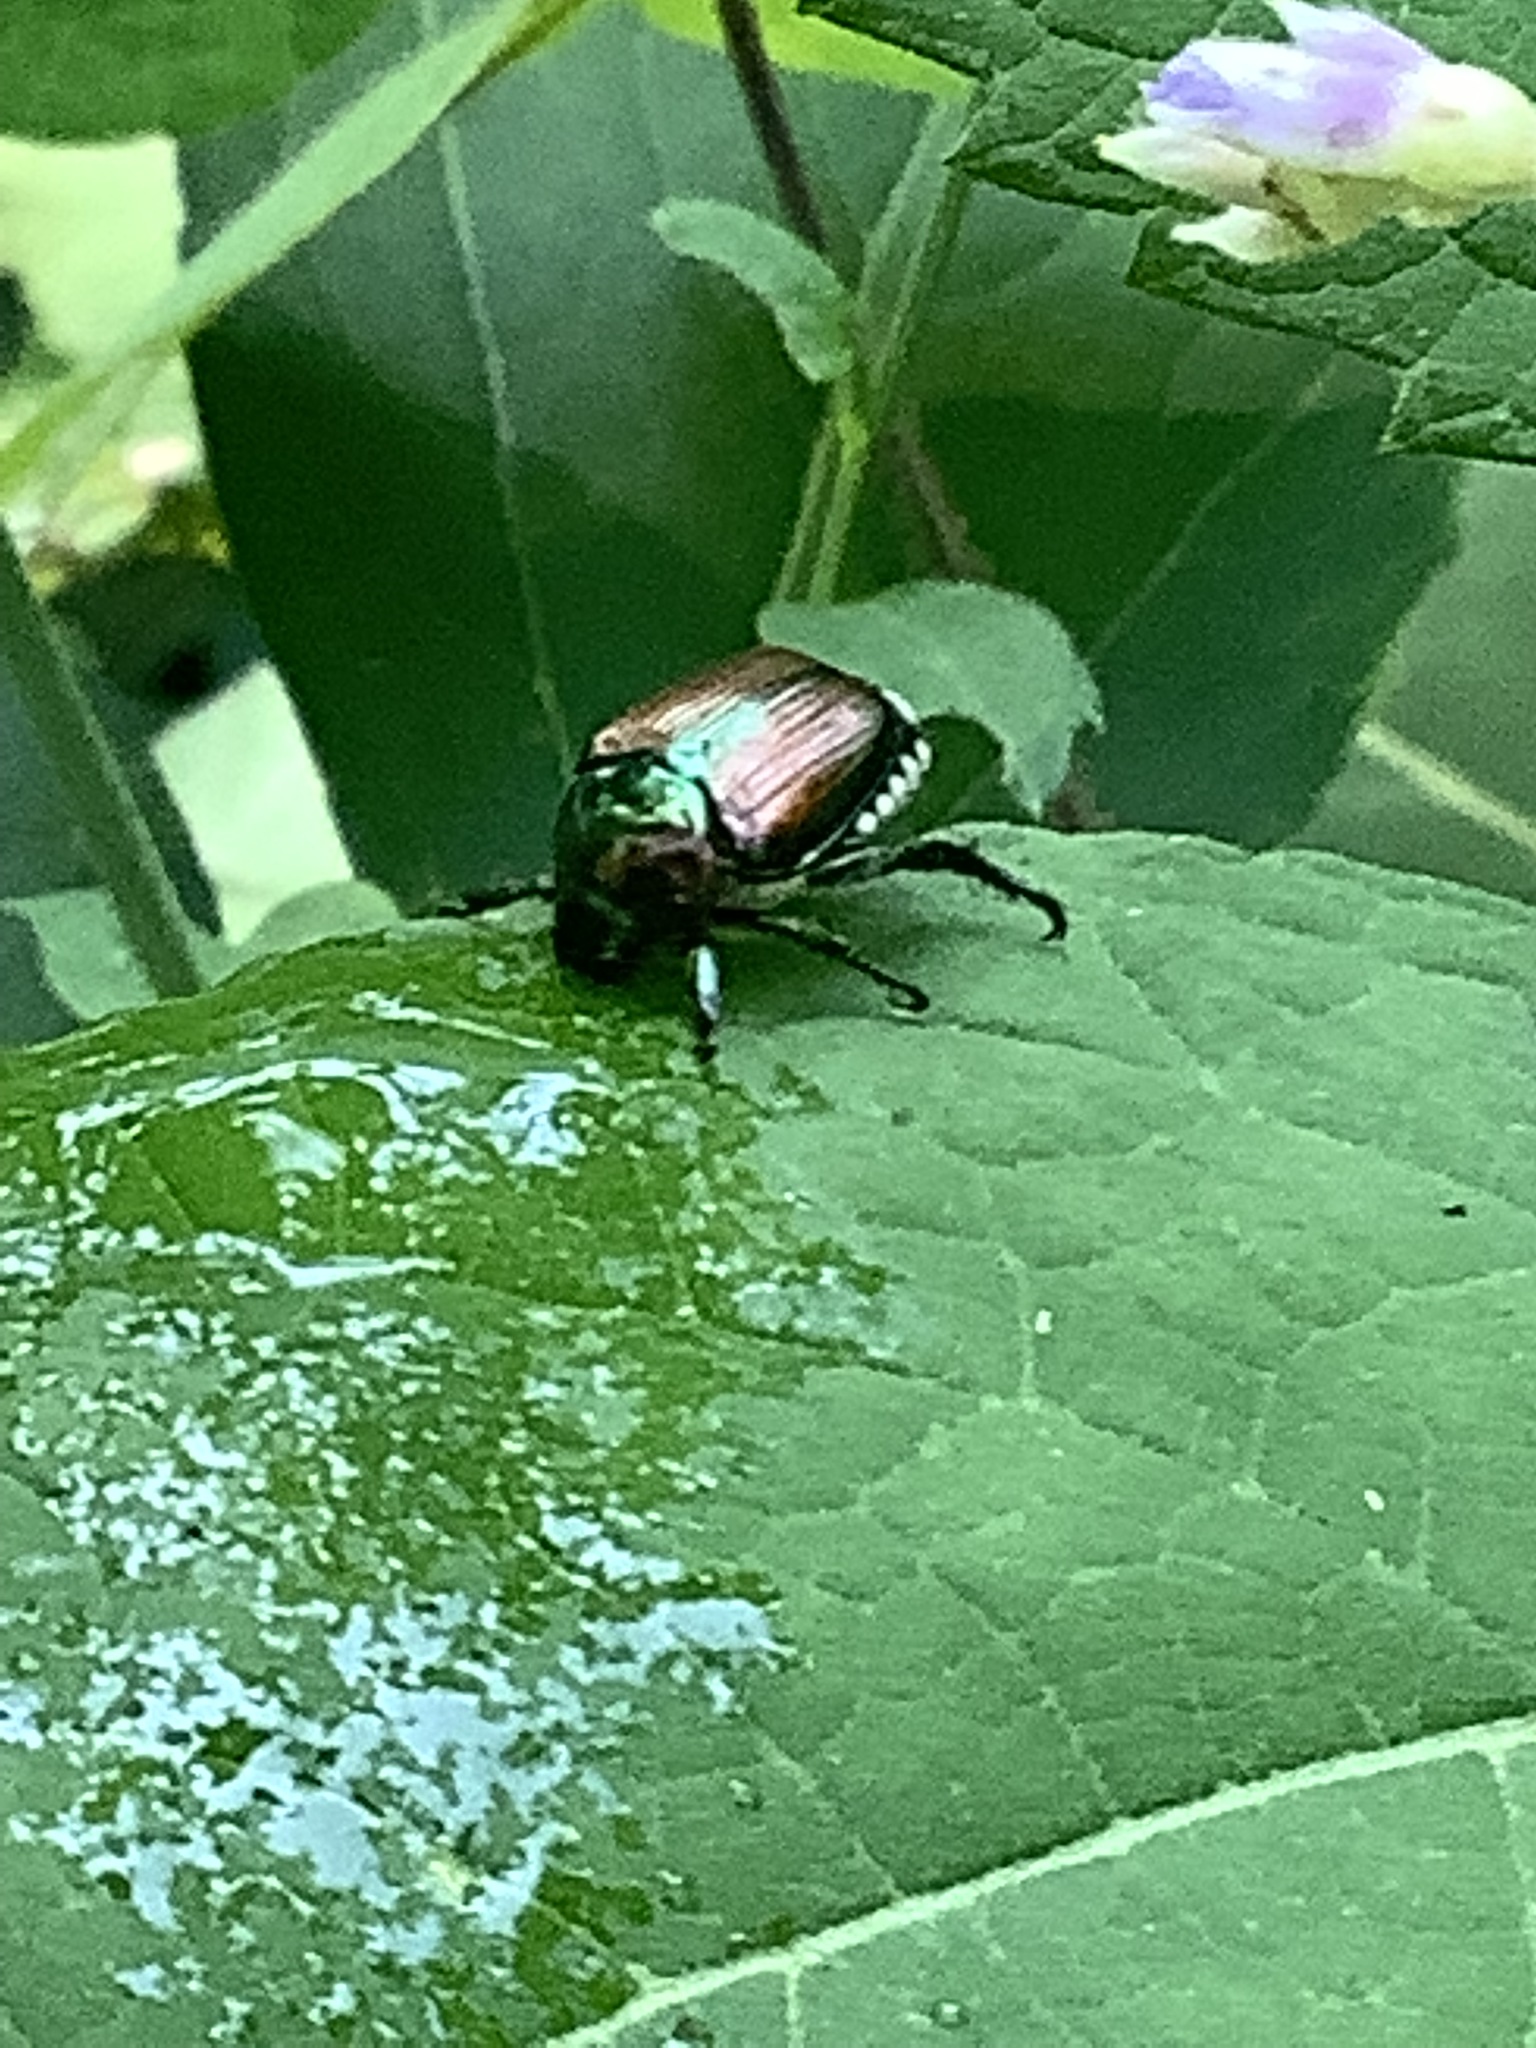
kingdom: Animalia
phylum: Arthropoda
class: Insecta
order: Coleoptera
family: Scarabaeidae
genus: Popillia
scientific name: Popillia japonica
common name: Japanese beetle
